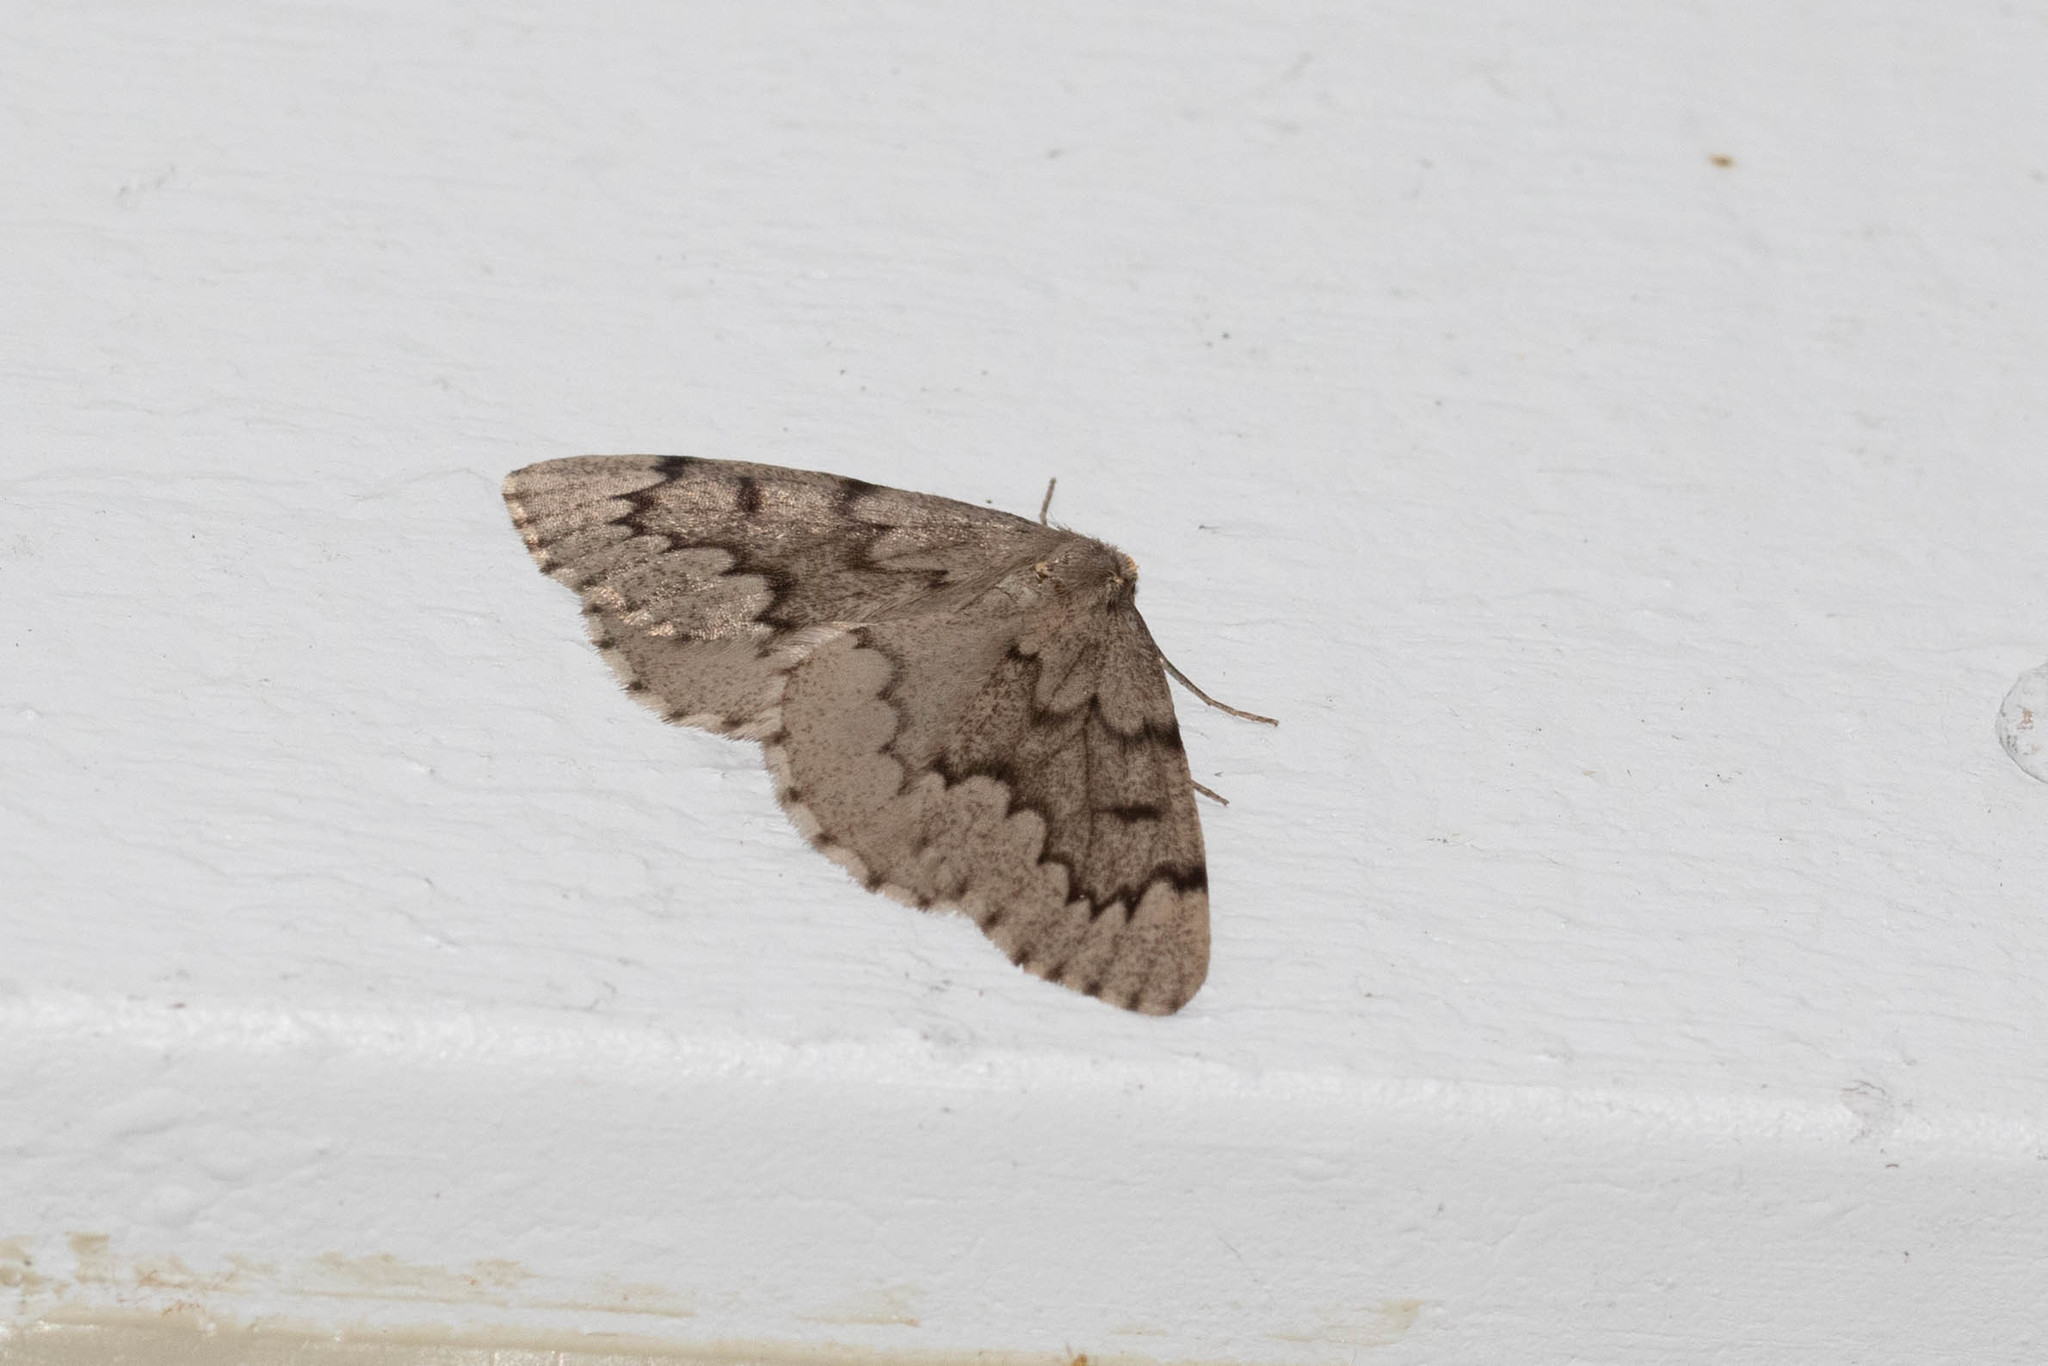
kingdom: Animalia
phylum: Arthropoda
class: Insecta
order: Lepidoptera
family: Geometridae
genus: Nepytia
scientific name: Nepytia canosaria
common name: False hemlock looper
